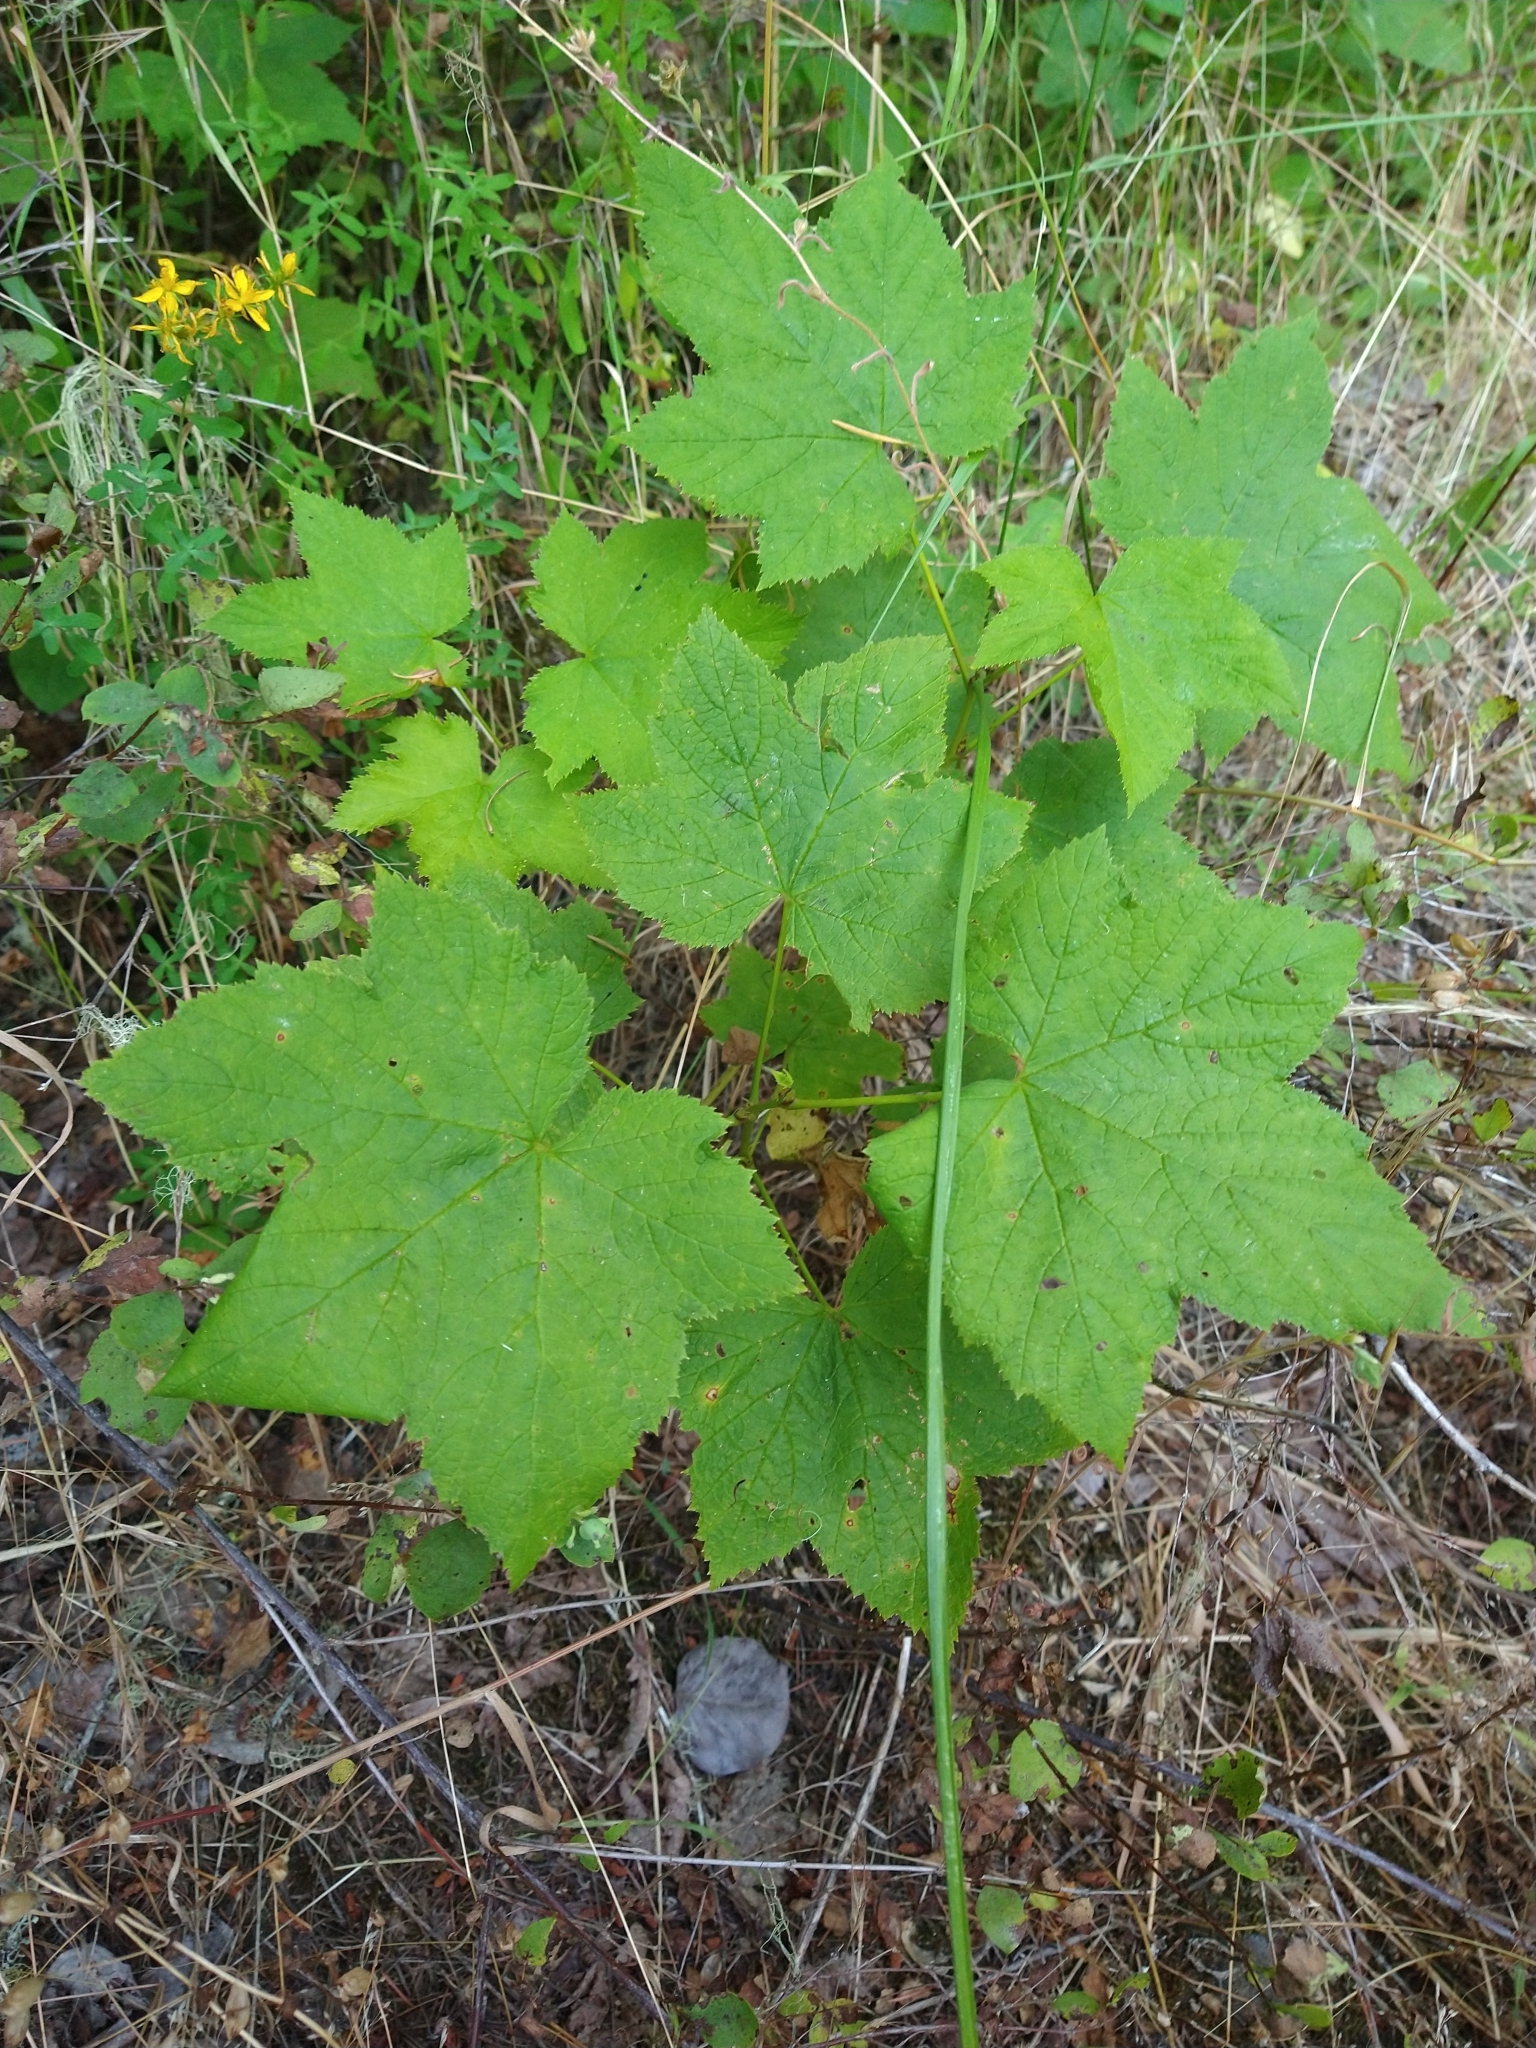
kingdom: Plantae
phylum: Tracheophyta
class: Magnoliopsida
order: Rosales
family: Rosaceae
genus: Rubus
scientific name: Rubus parviflorus
